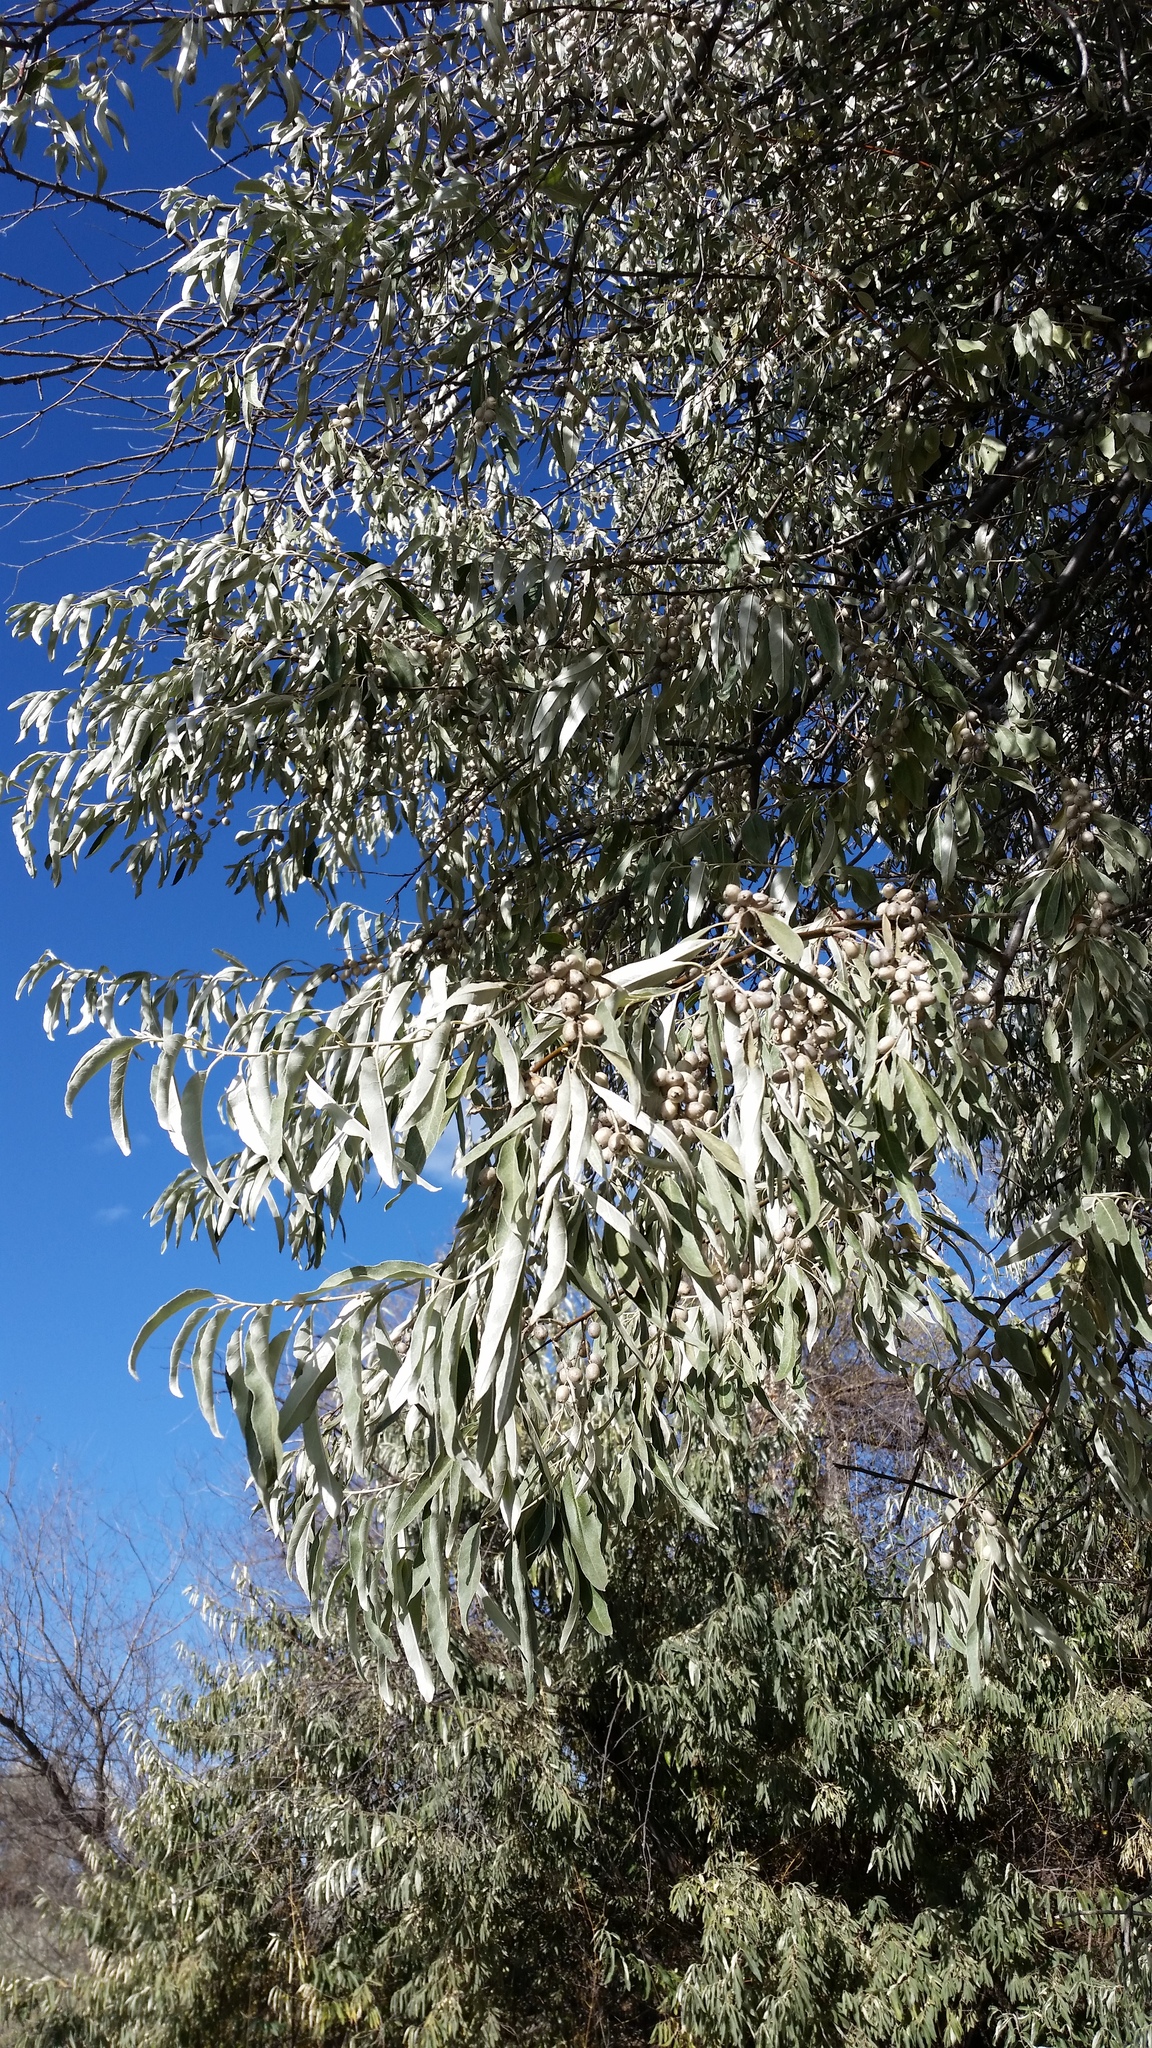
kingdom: Plantae
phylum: Tracheophyta
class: Magnoliopsida
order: Rosales
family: Elaeagnaceae
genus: Elaeagnus
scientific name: Elaeagnus angustifolia
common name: Russian olive
